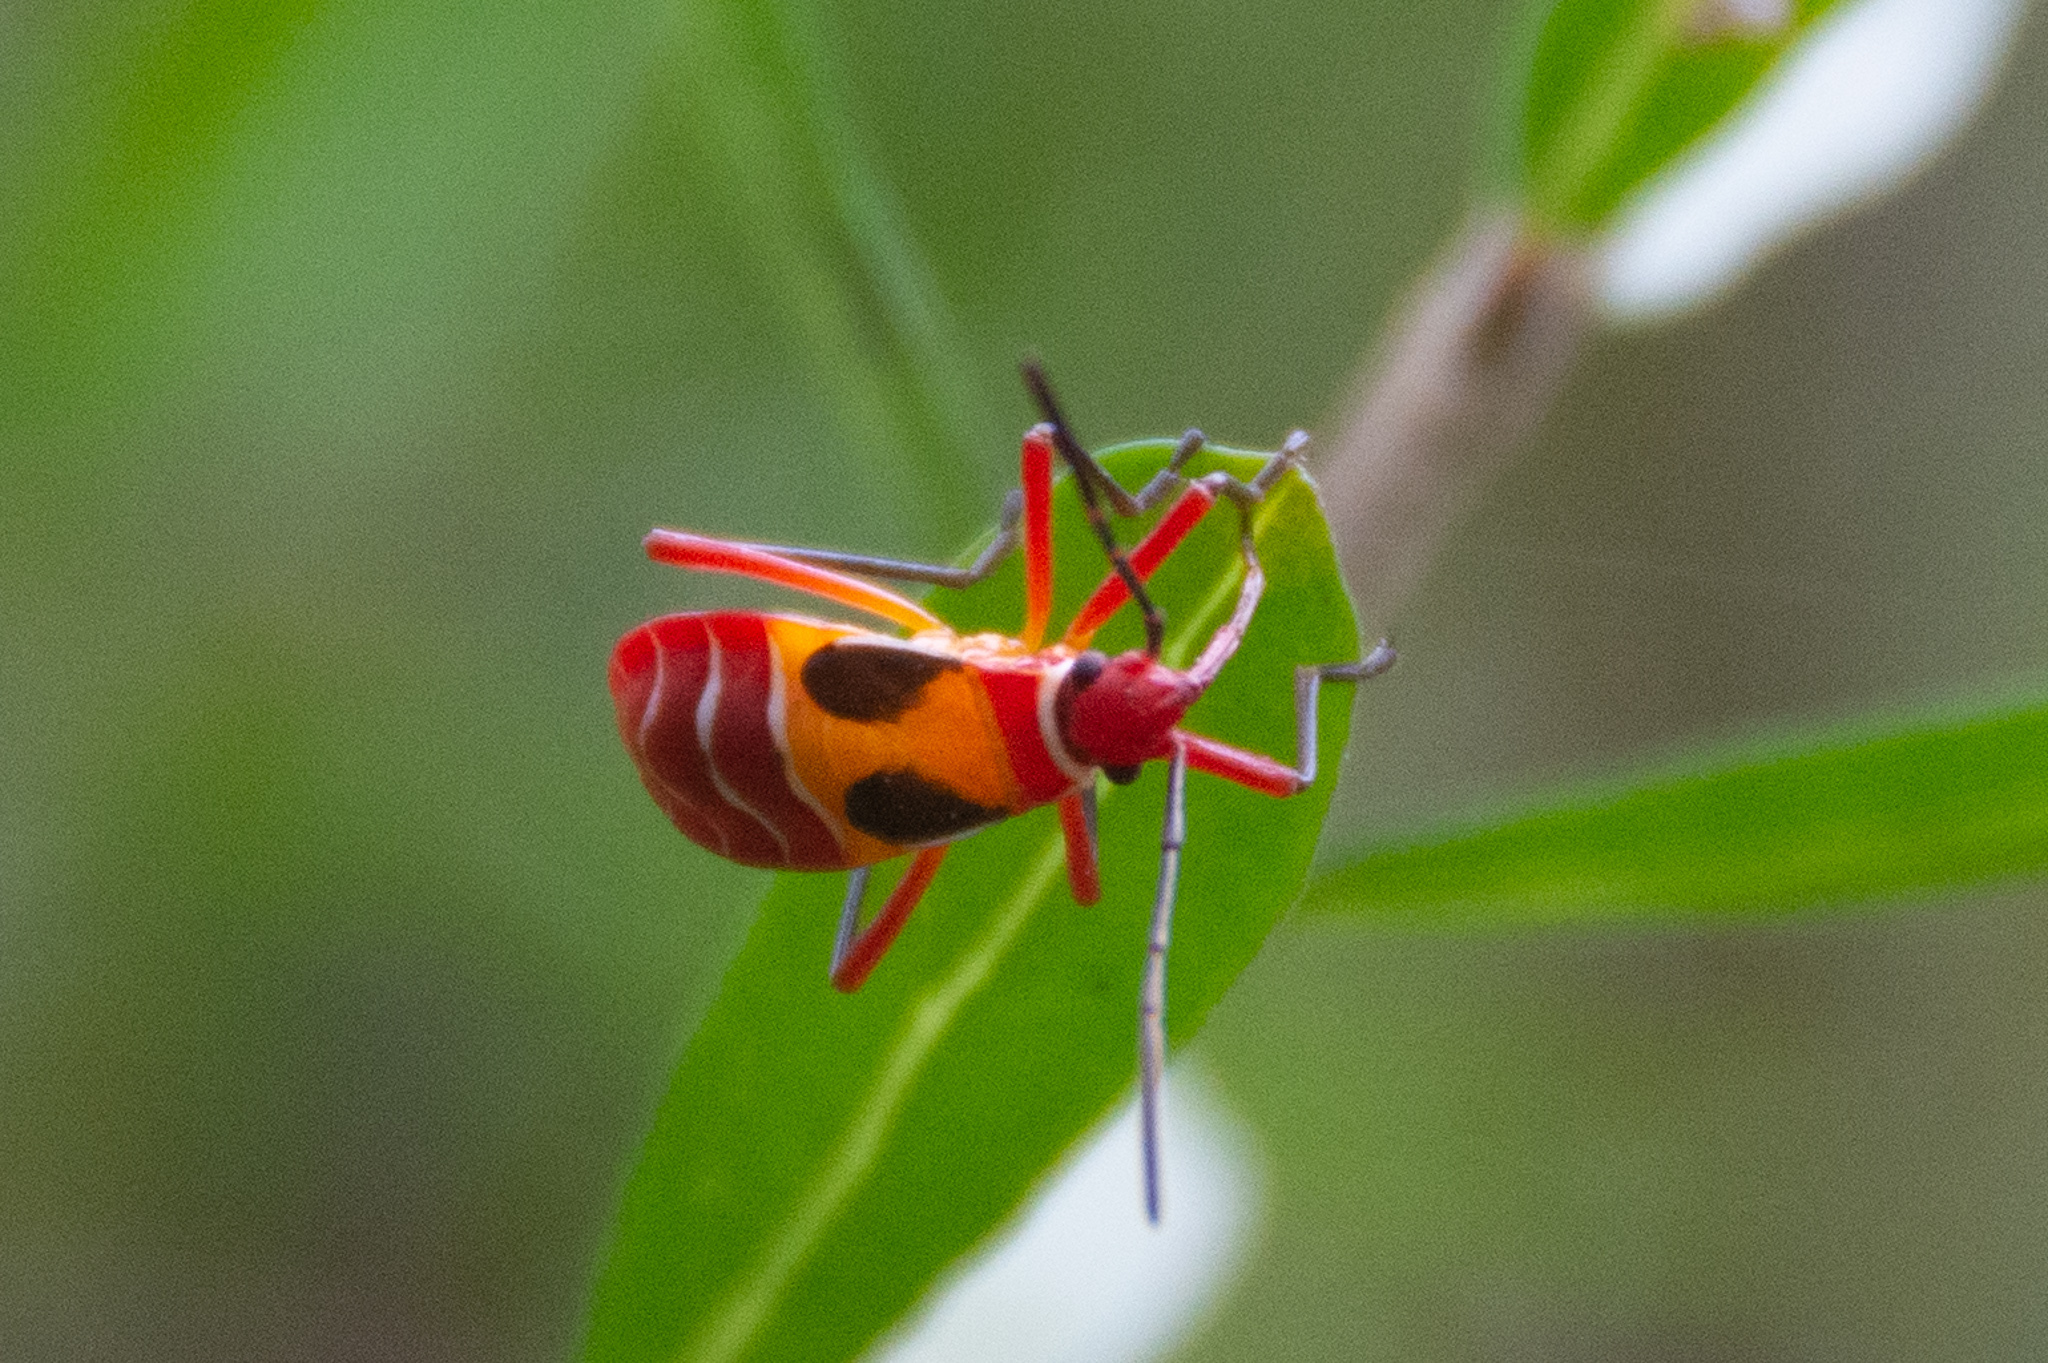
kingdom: Animalia
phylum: Arthropoda
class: Insecta
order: Hemiptera
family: Pyrrhocoridae
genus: Dysdercus
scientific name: Dysdercus concinnus
